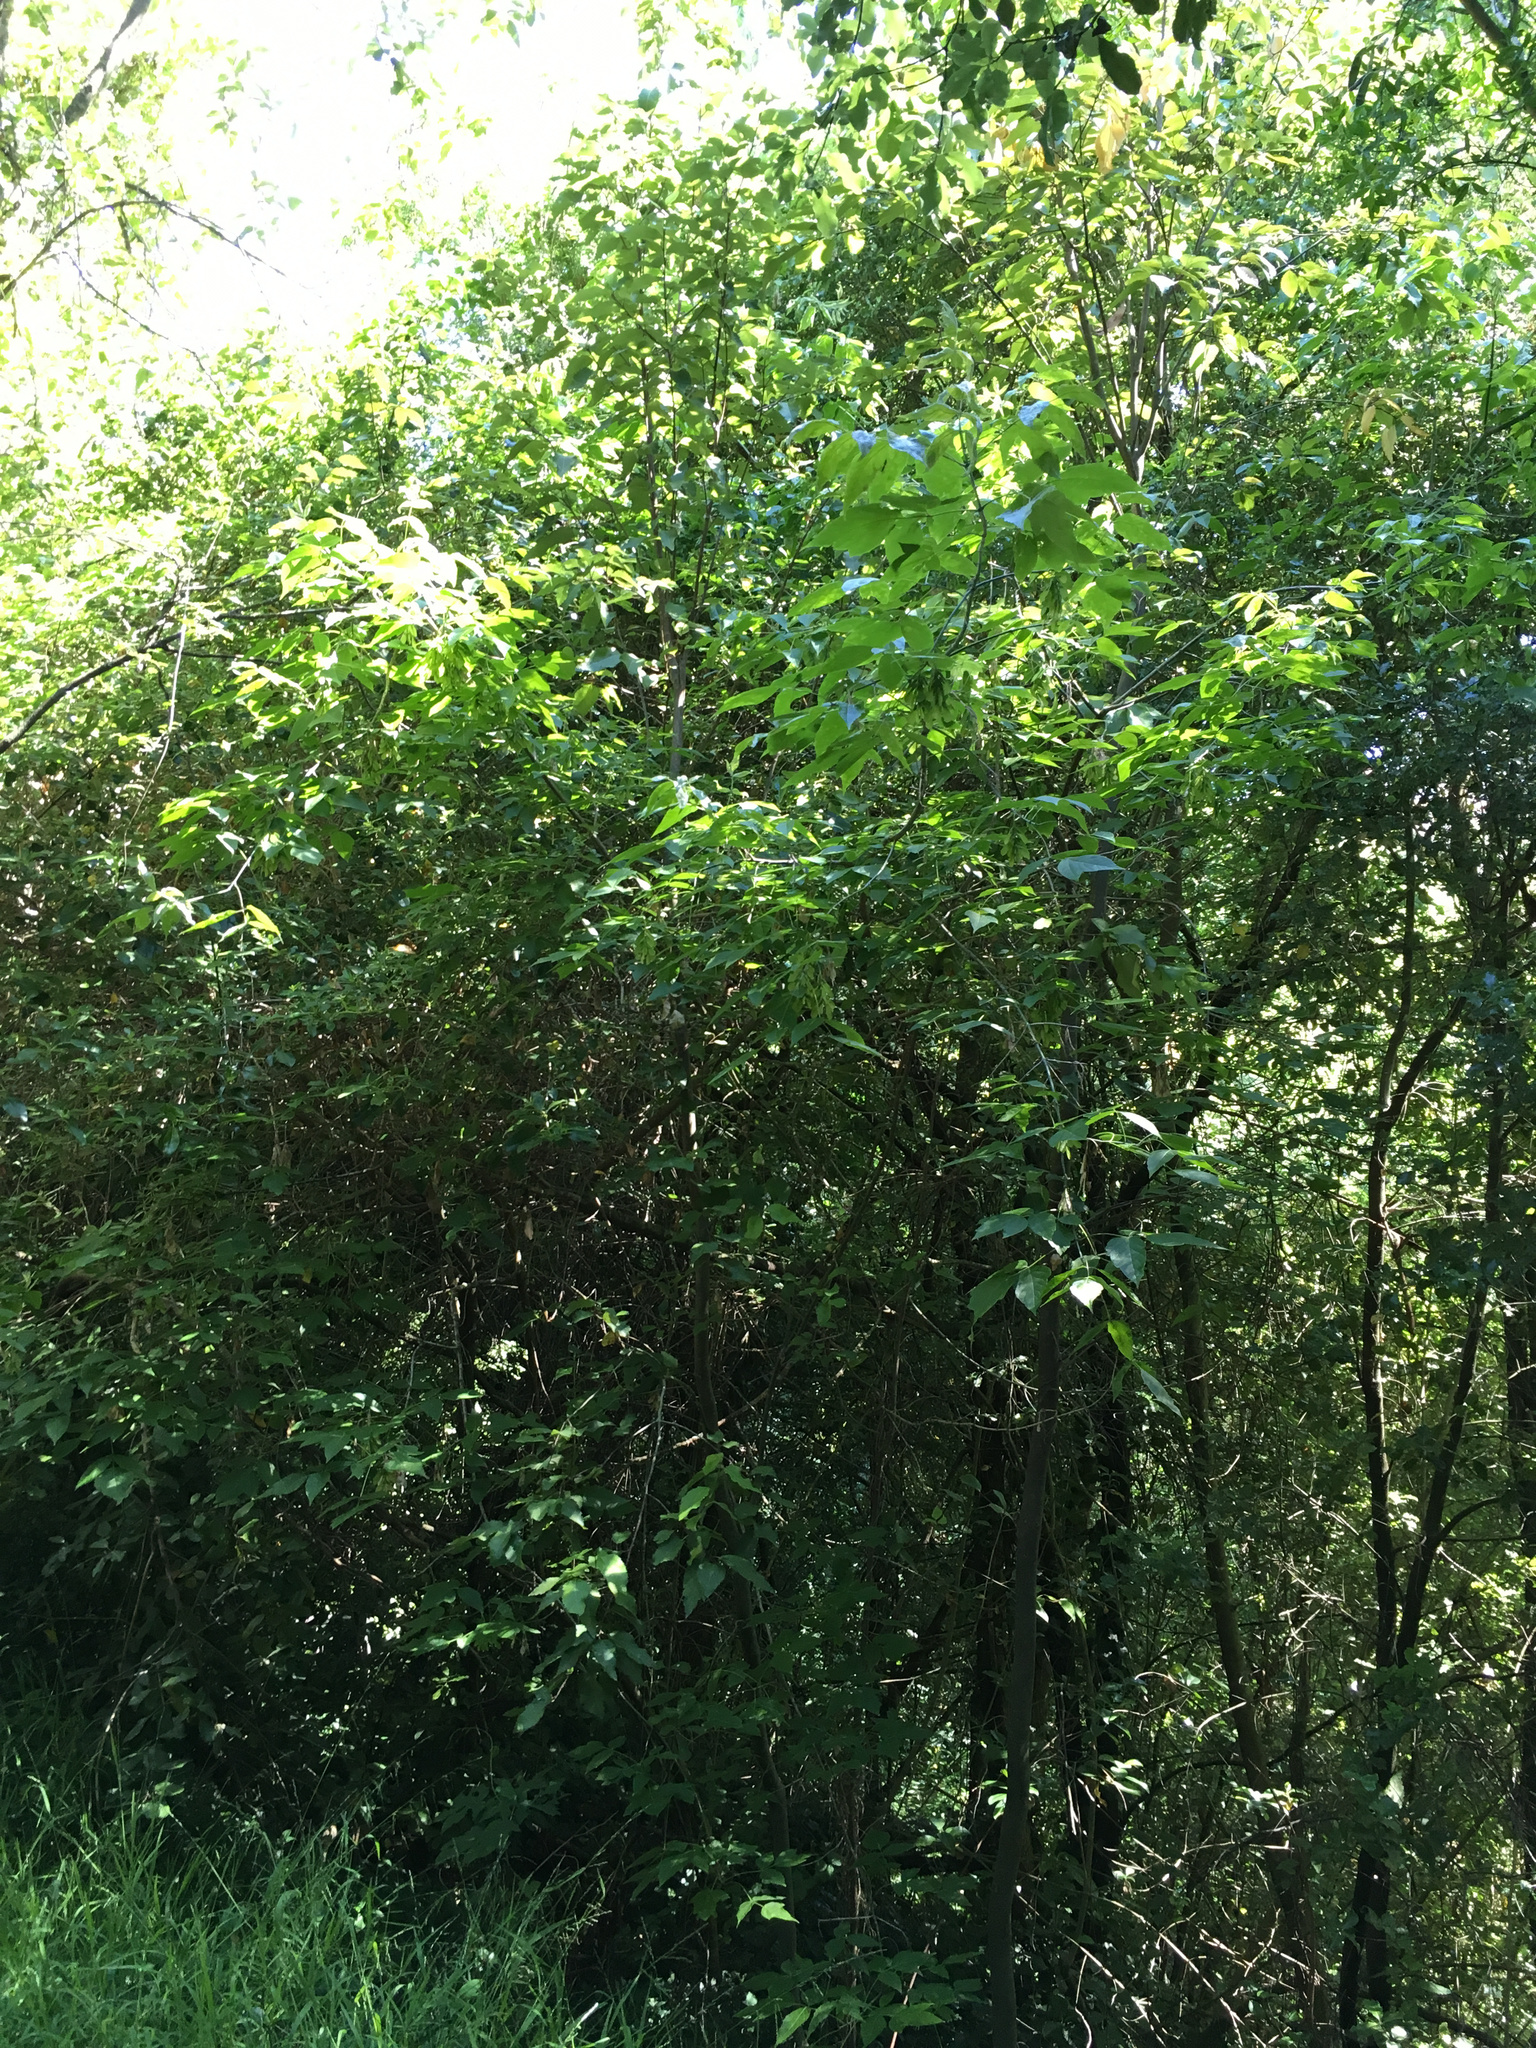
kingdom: Plantae
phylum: Tracheophyta
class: Magnoliopsida
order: Sapindales
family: Sapindaceae
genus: Acer
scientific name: Acer negundo
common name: Ashleaf maple
